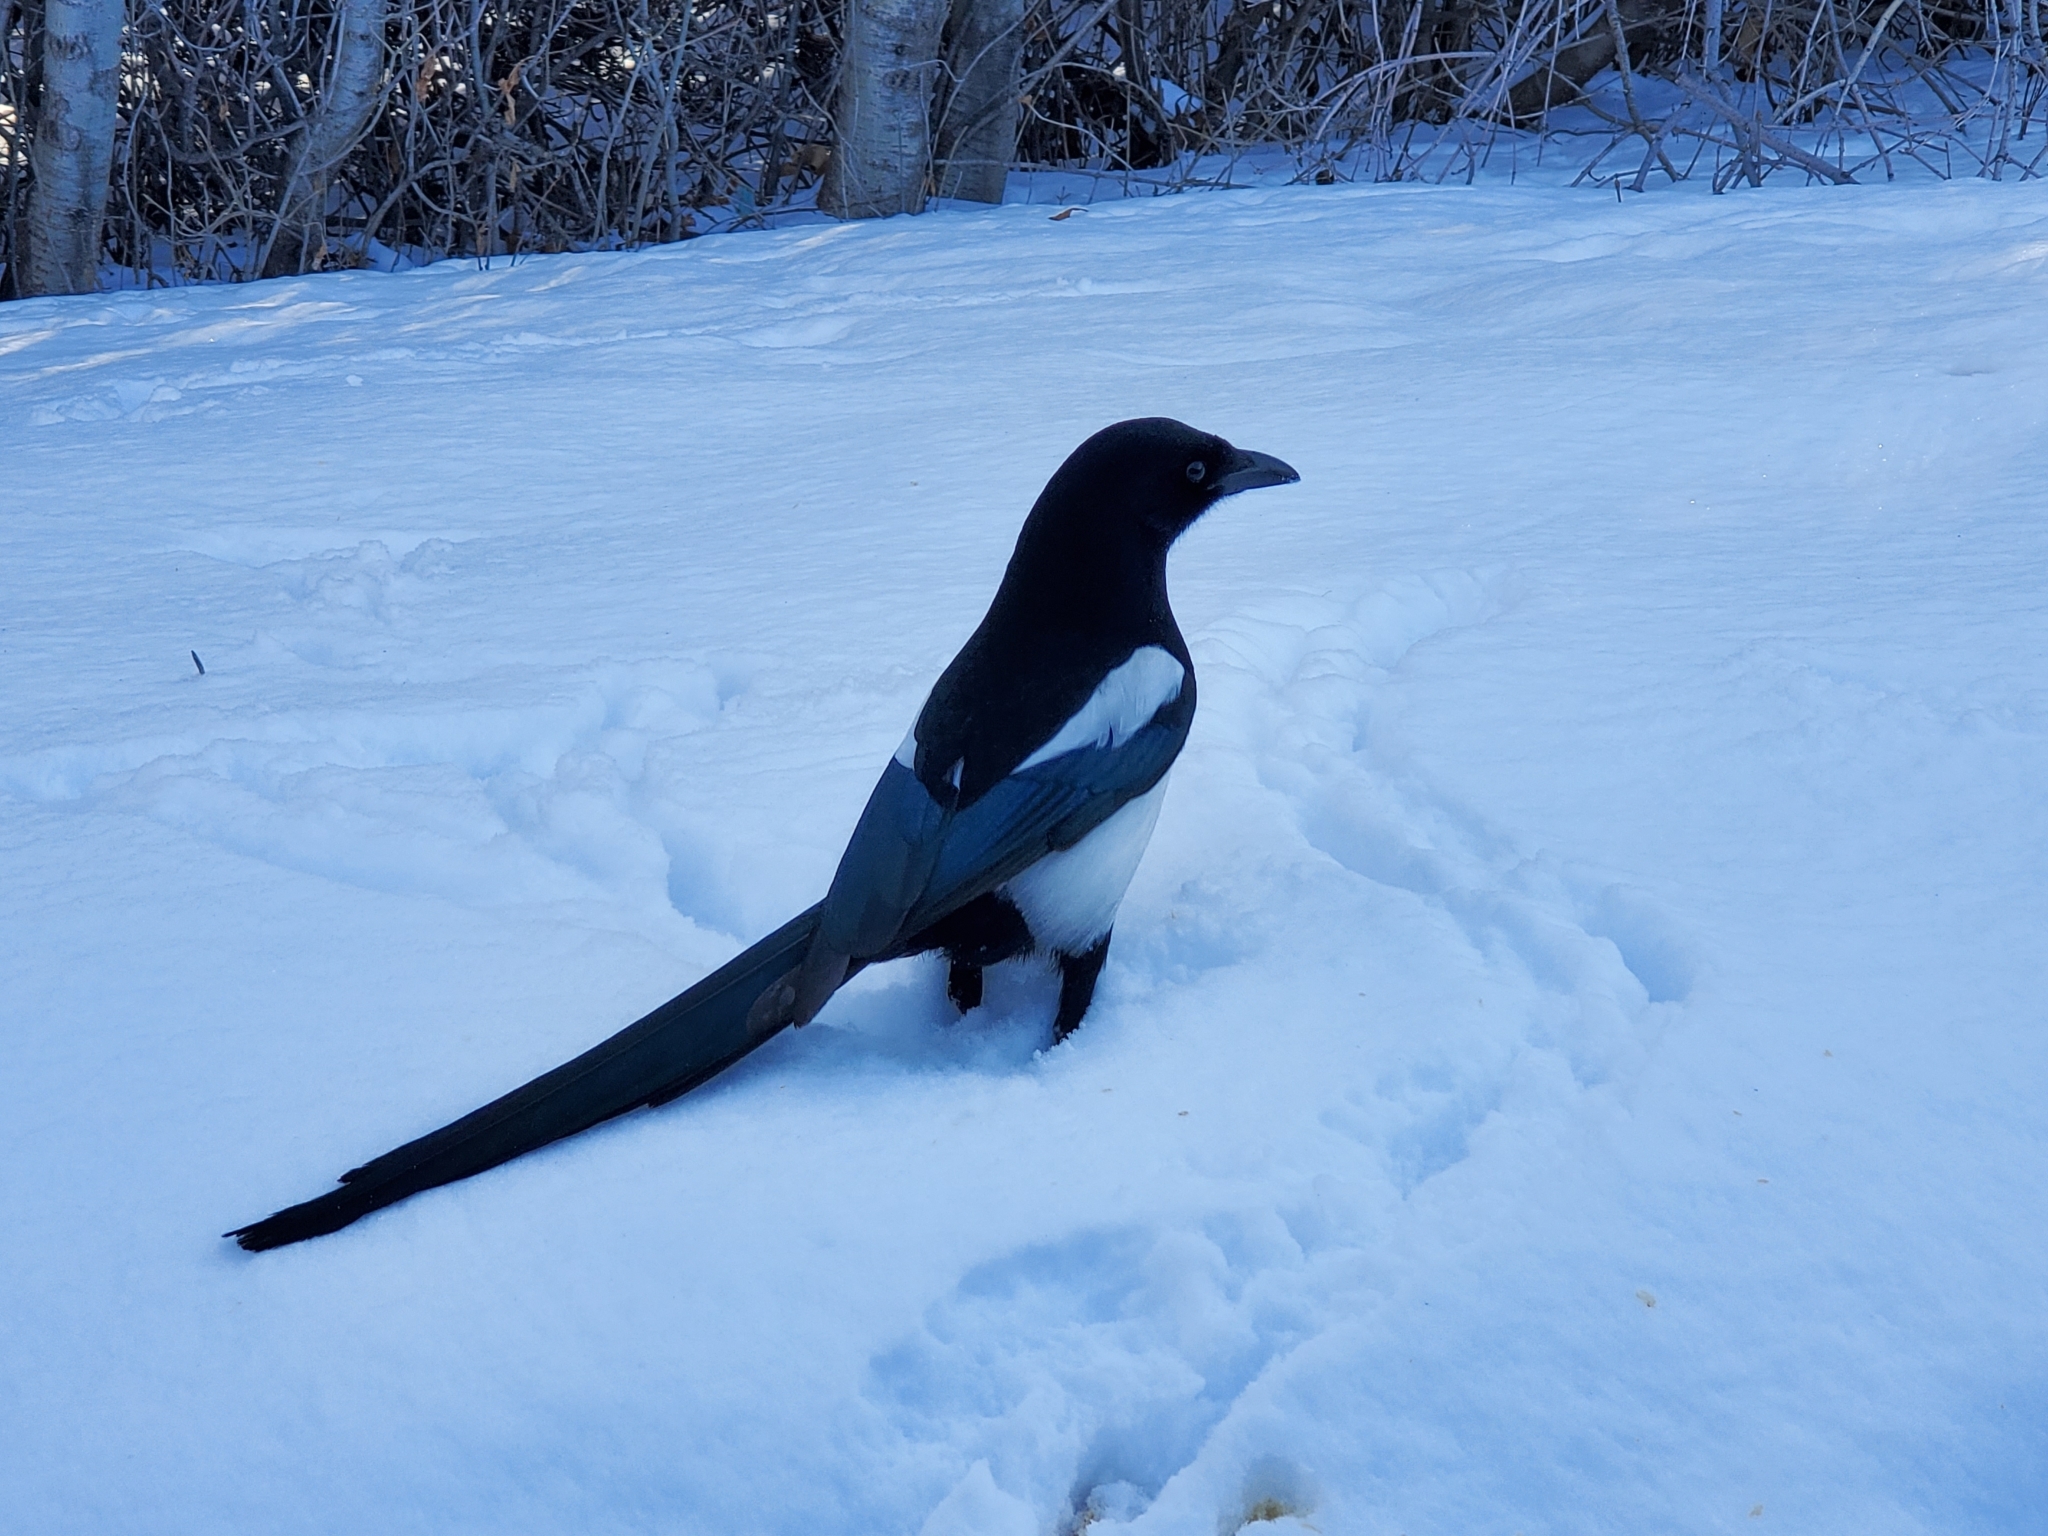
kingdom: Animalia
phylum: Chordata
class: Aves
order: Passeriformes
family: Corvidae
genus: Pica
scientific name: Pica hudsonia
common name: Black-billed magpie
